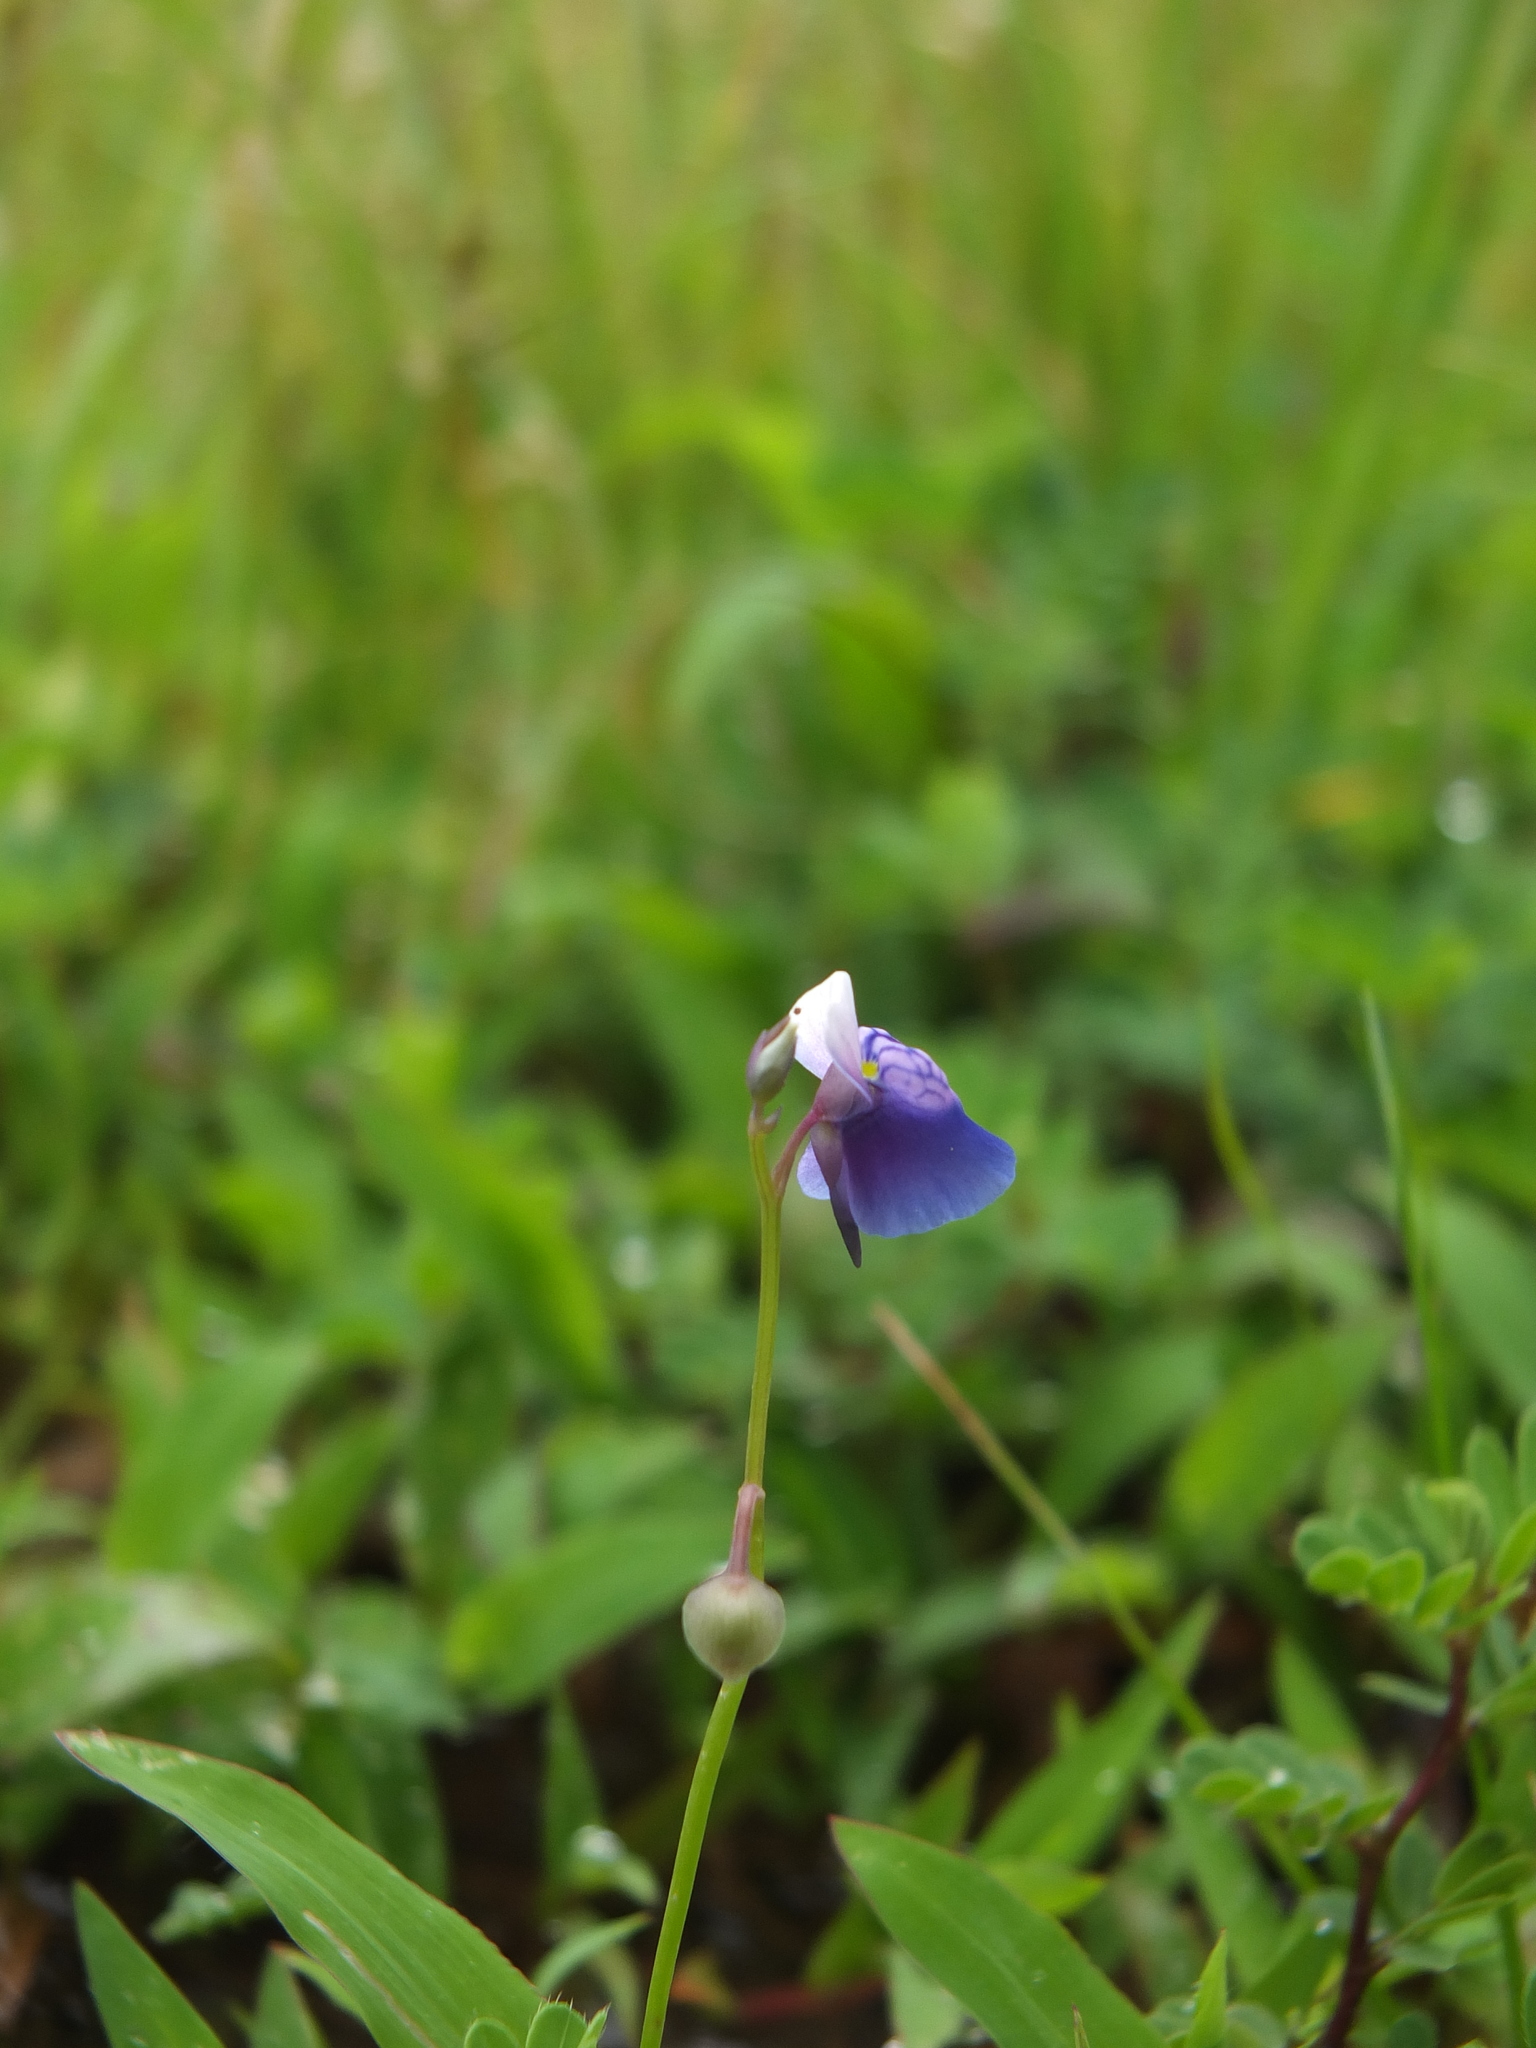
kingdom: Plantae
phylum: Tracheophyta
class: Magnoliopsida
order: Lamiales
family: Lentibulariaceae
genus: Utricularia
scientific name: Utricularia albocaerulea
